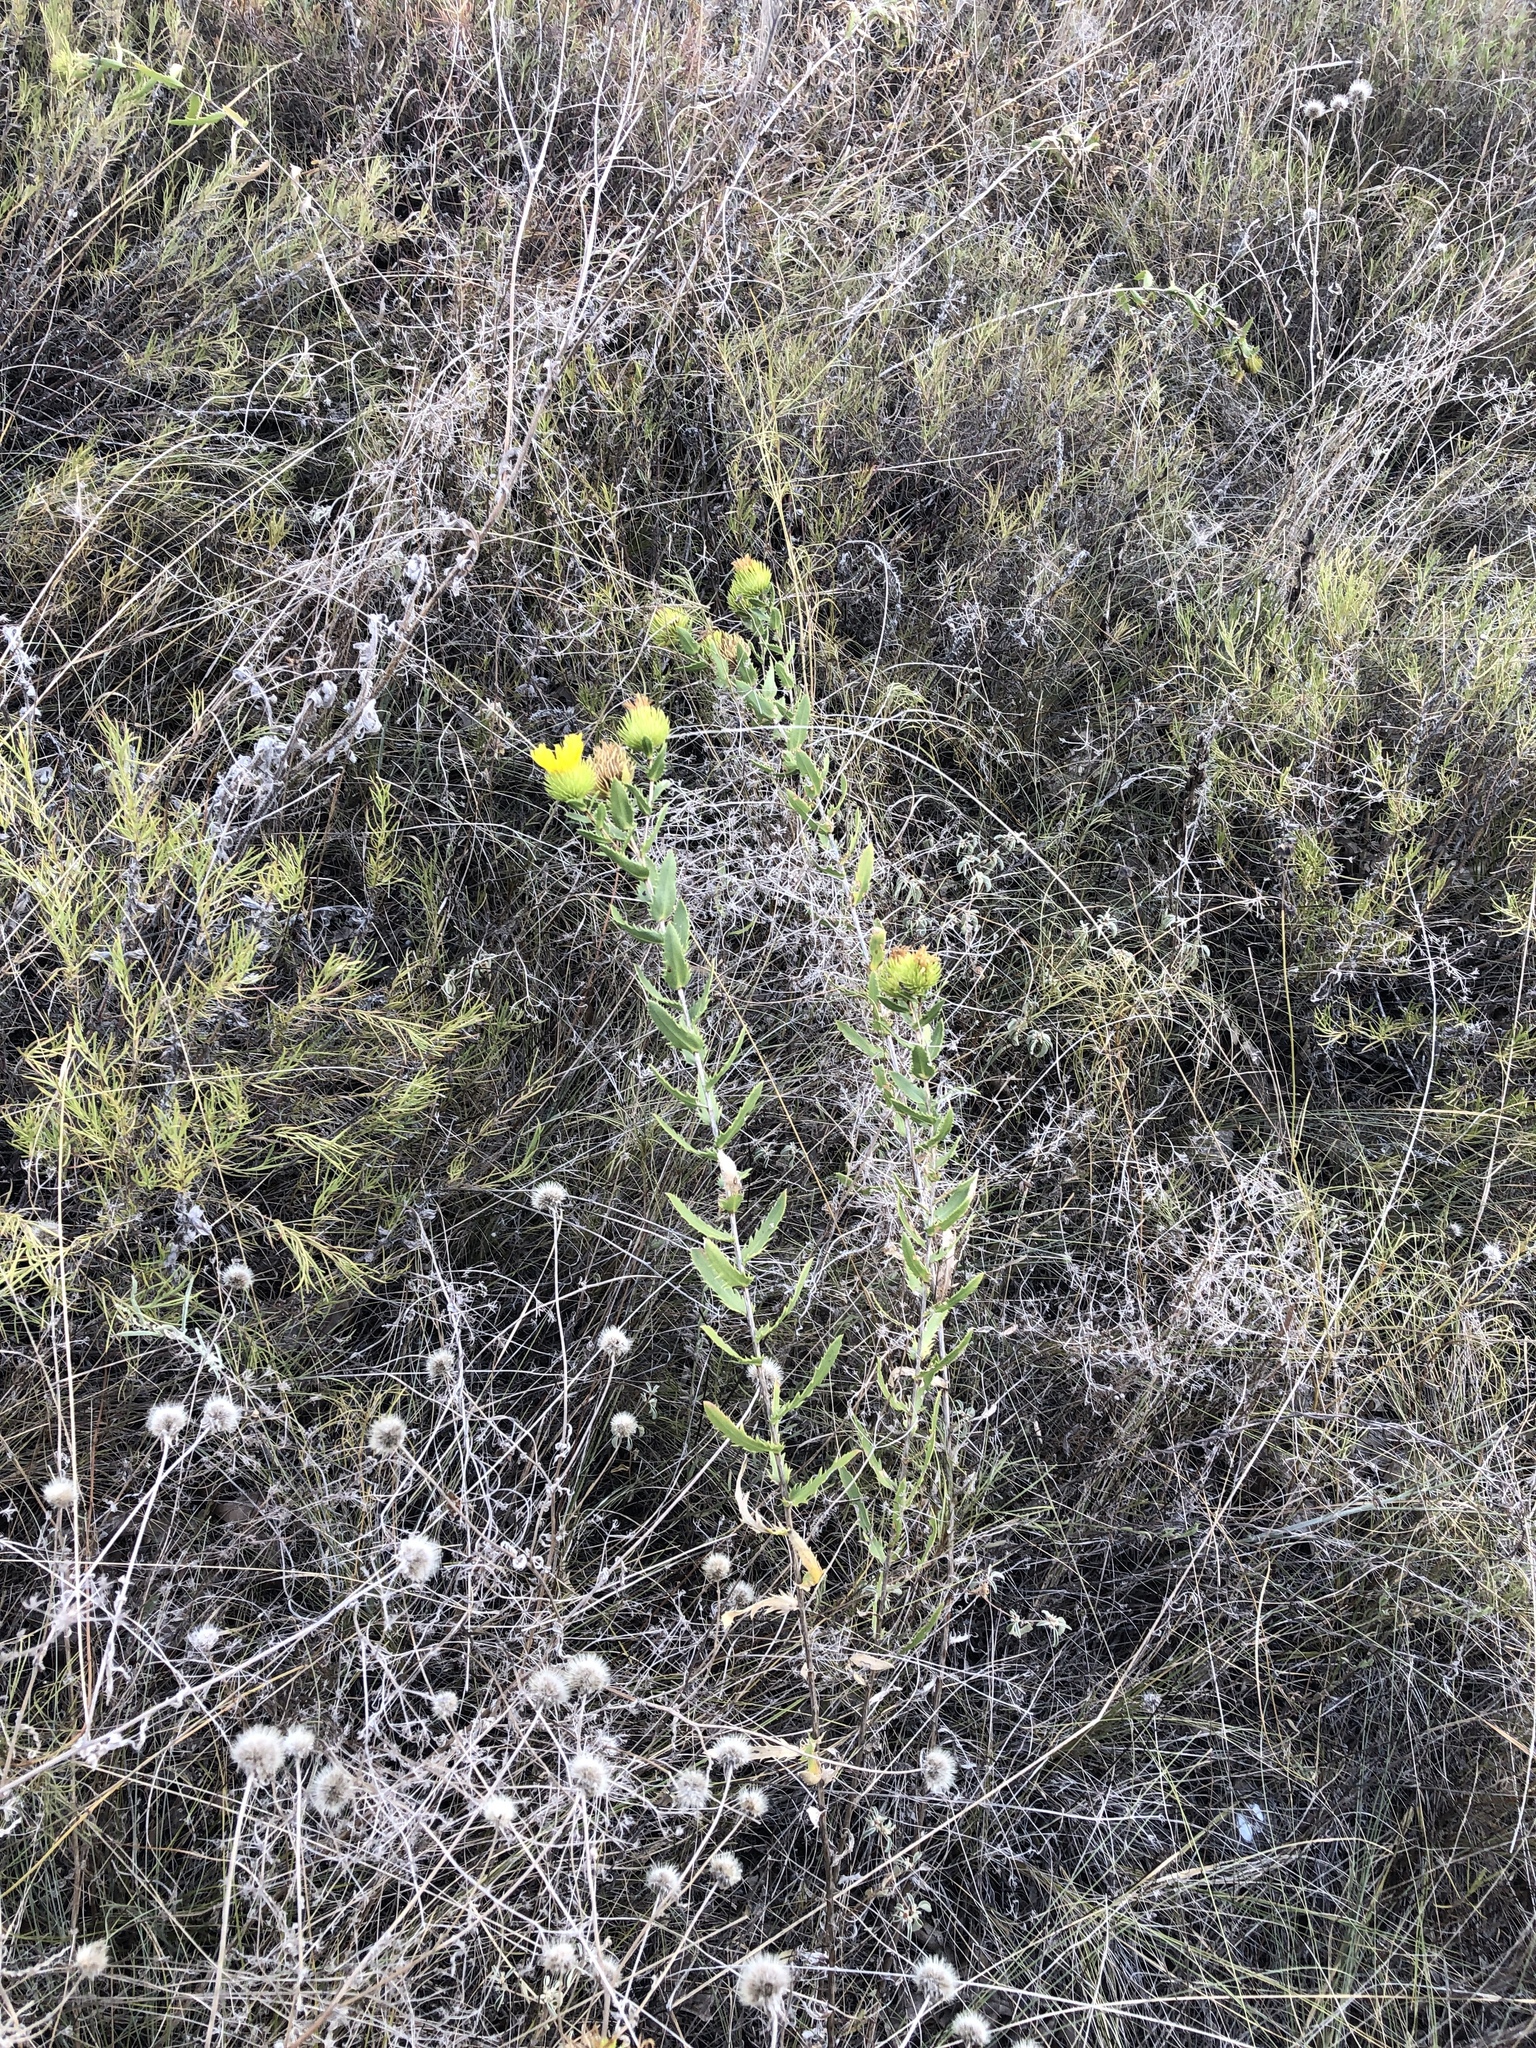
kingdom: Plantae
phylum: Tracheophyta
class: Magnoliopsida
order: Asterales
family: Asteraceae
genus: Grindelia
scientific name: Grindelia lanceolata
